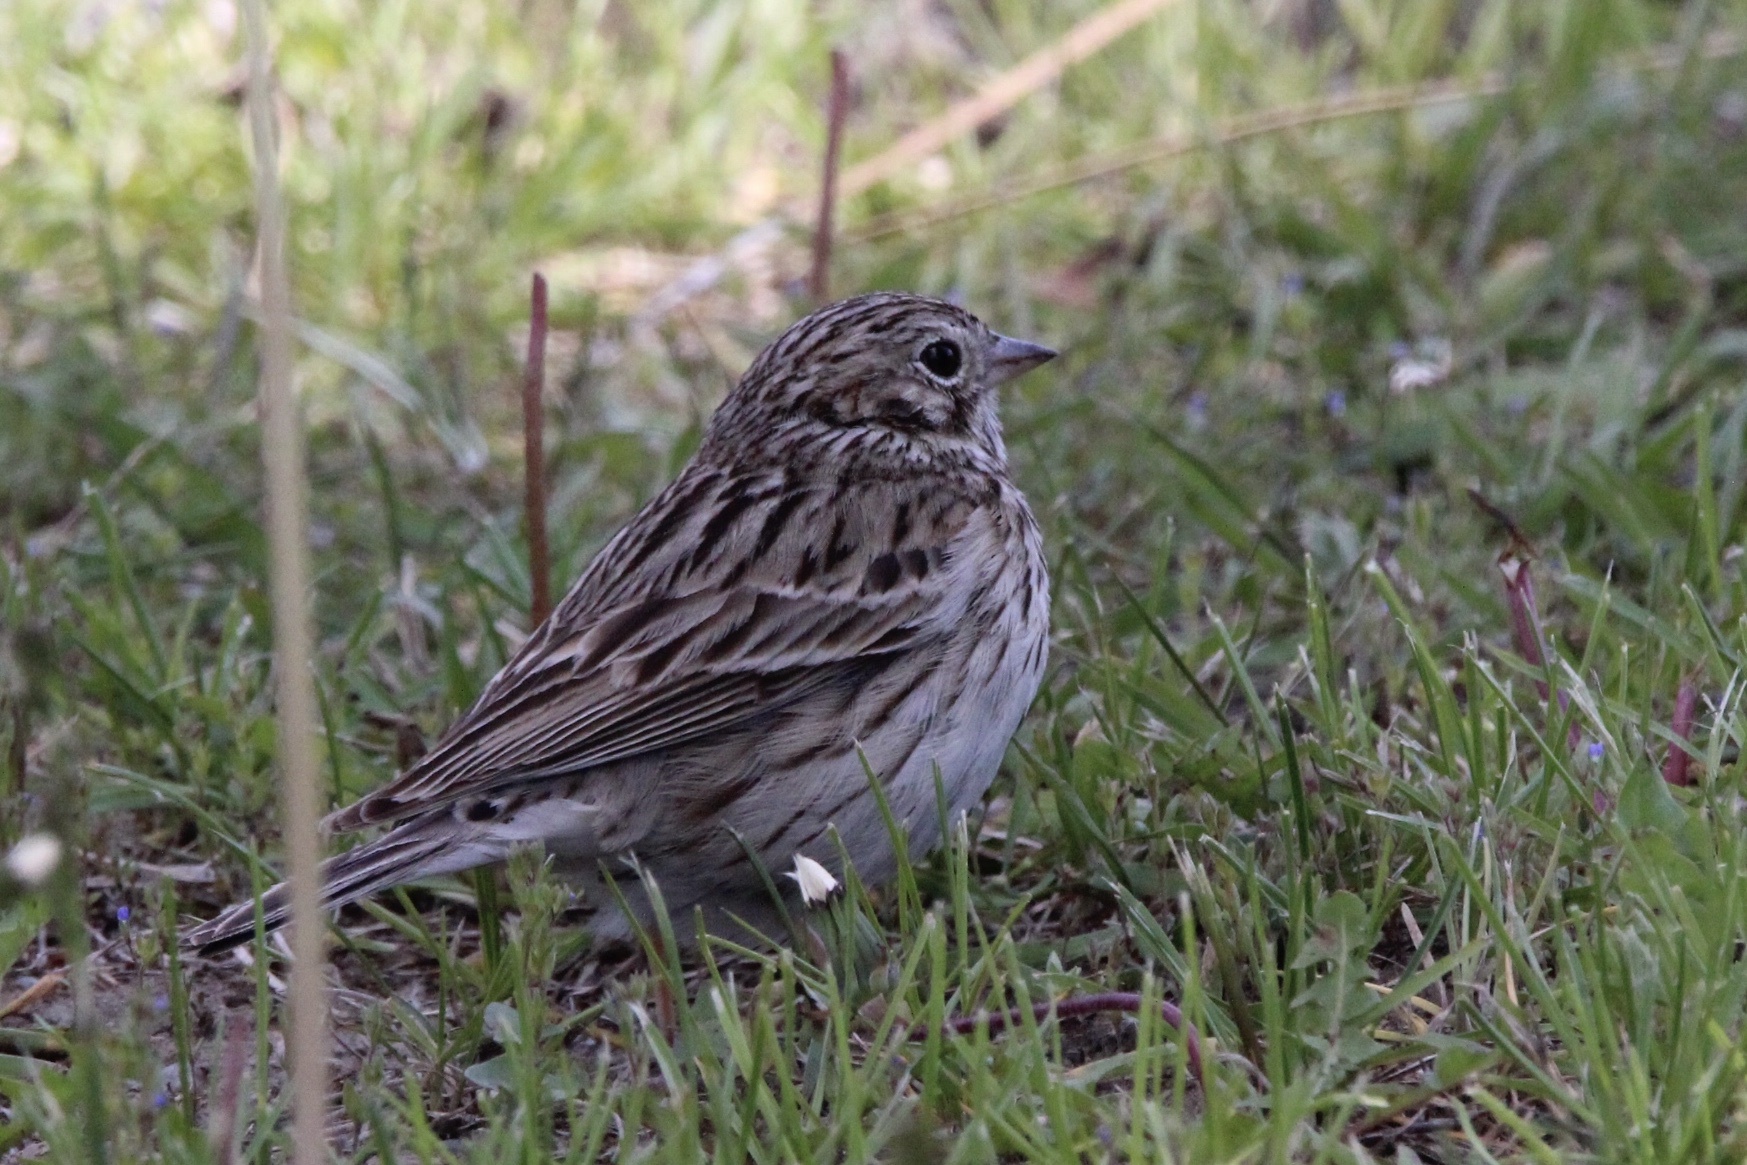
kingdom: Animalia
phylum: Chordata
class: Aves
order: Passeriformes
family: Passerellidae
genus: Pooecetes
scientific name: Pooecetes gramineus
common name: Vesper sparrow
